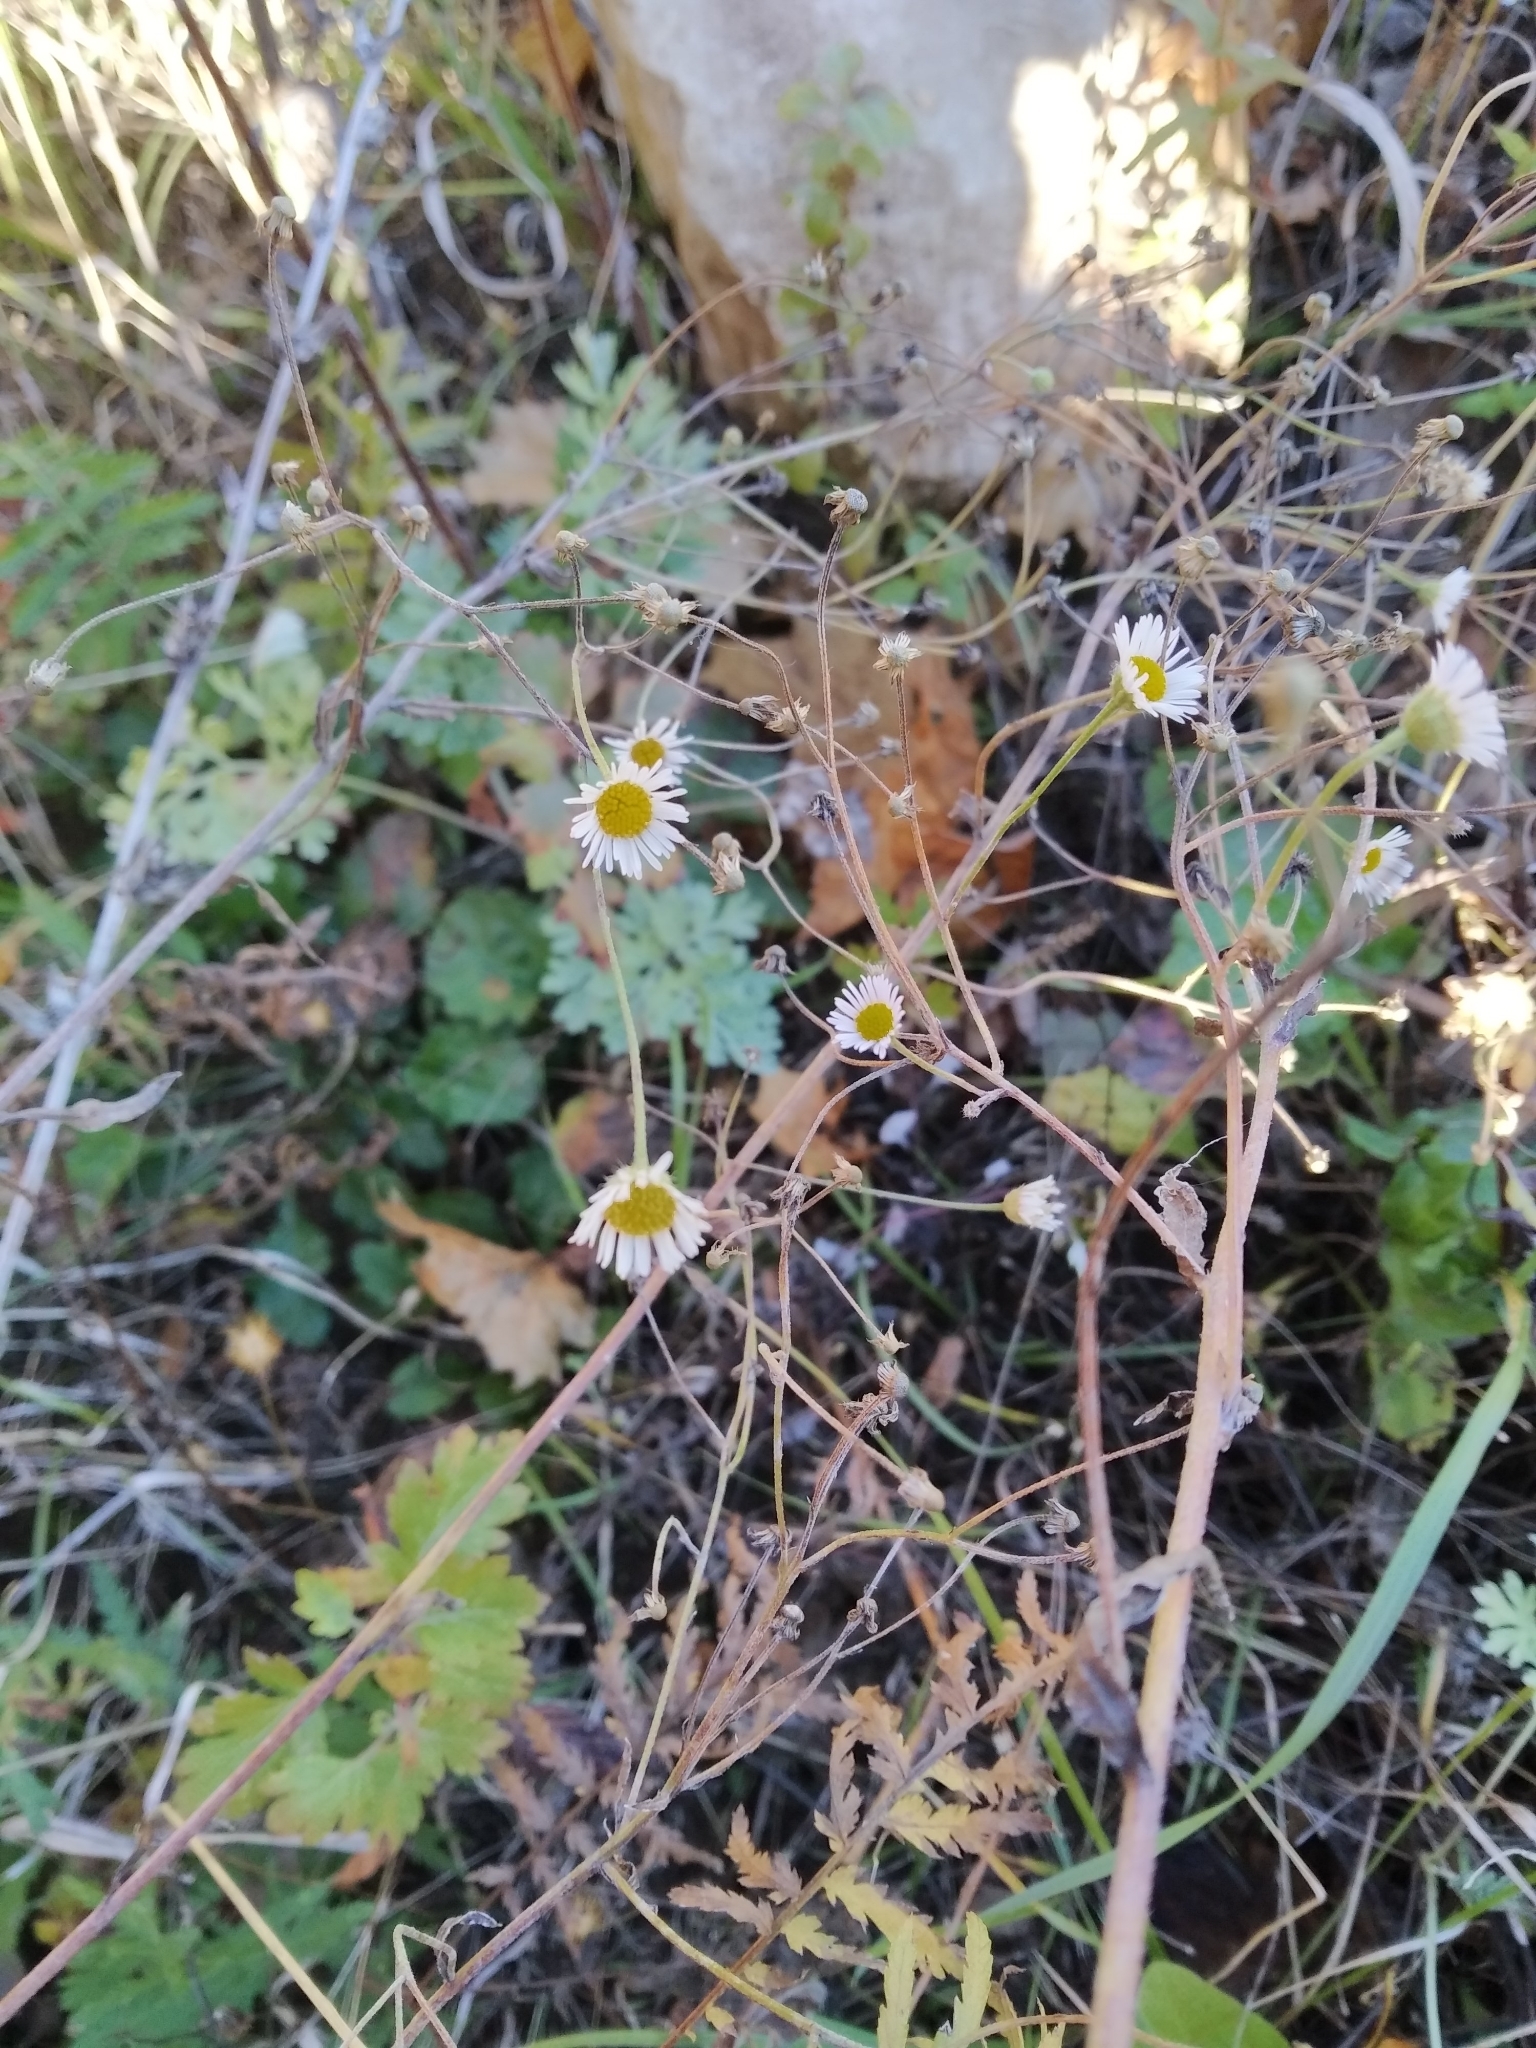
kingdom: Plantae
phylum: Tracheophyta
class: Magnoliopsida
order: Asterales
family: Asteraceae
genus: Erigeron
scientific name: Erigeron annuus
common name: Tall fleabane
